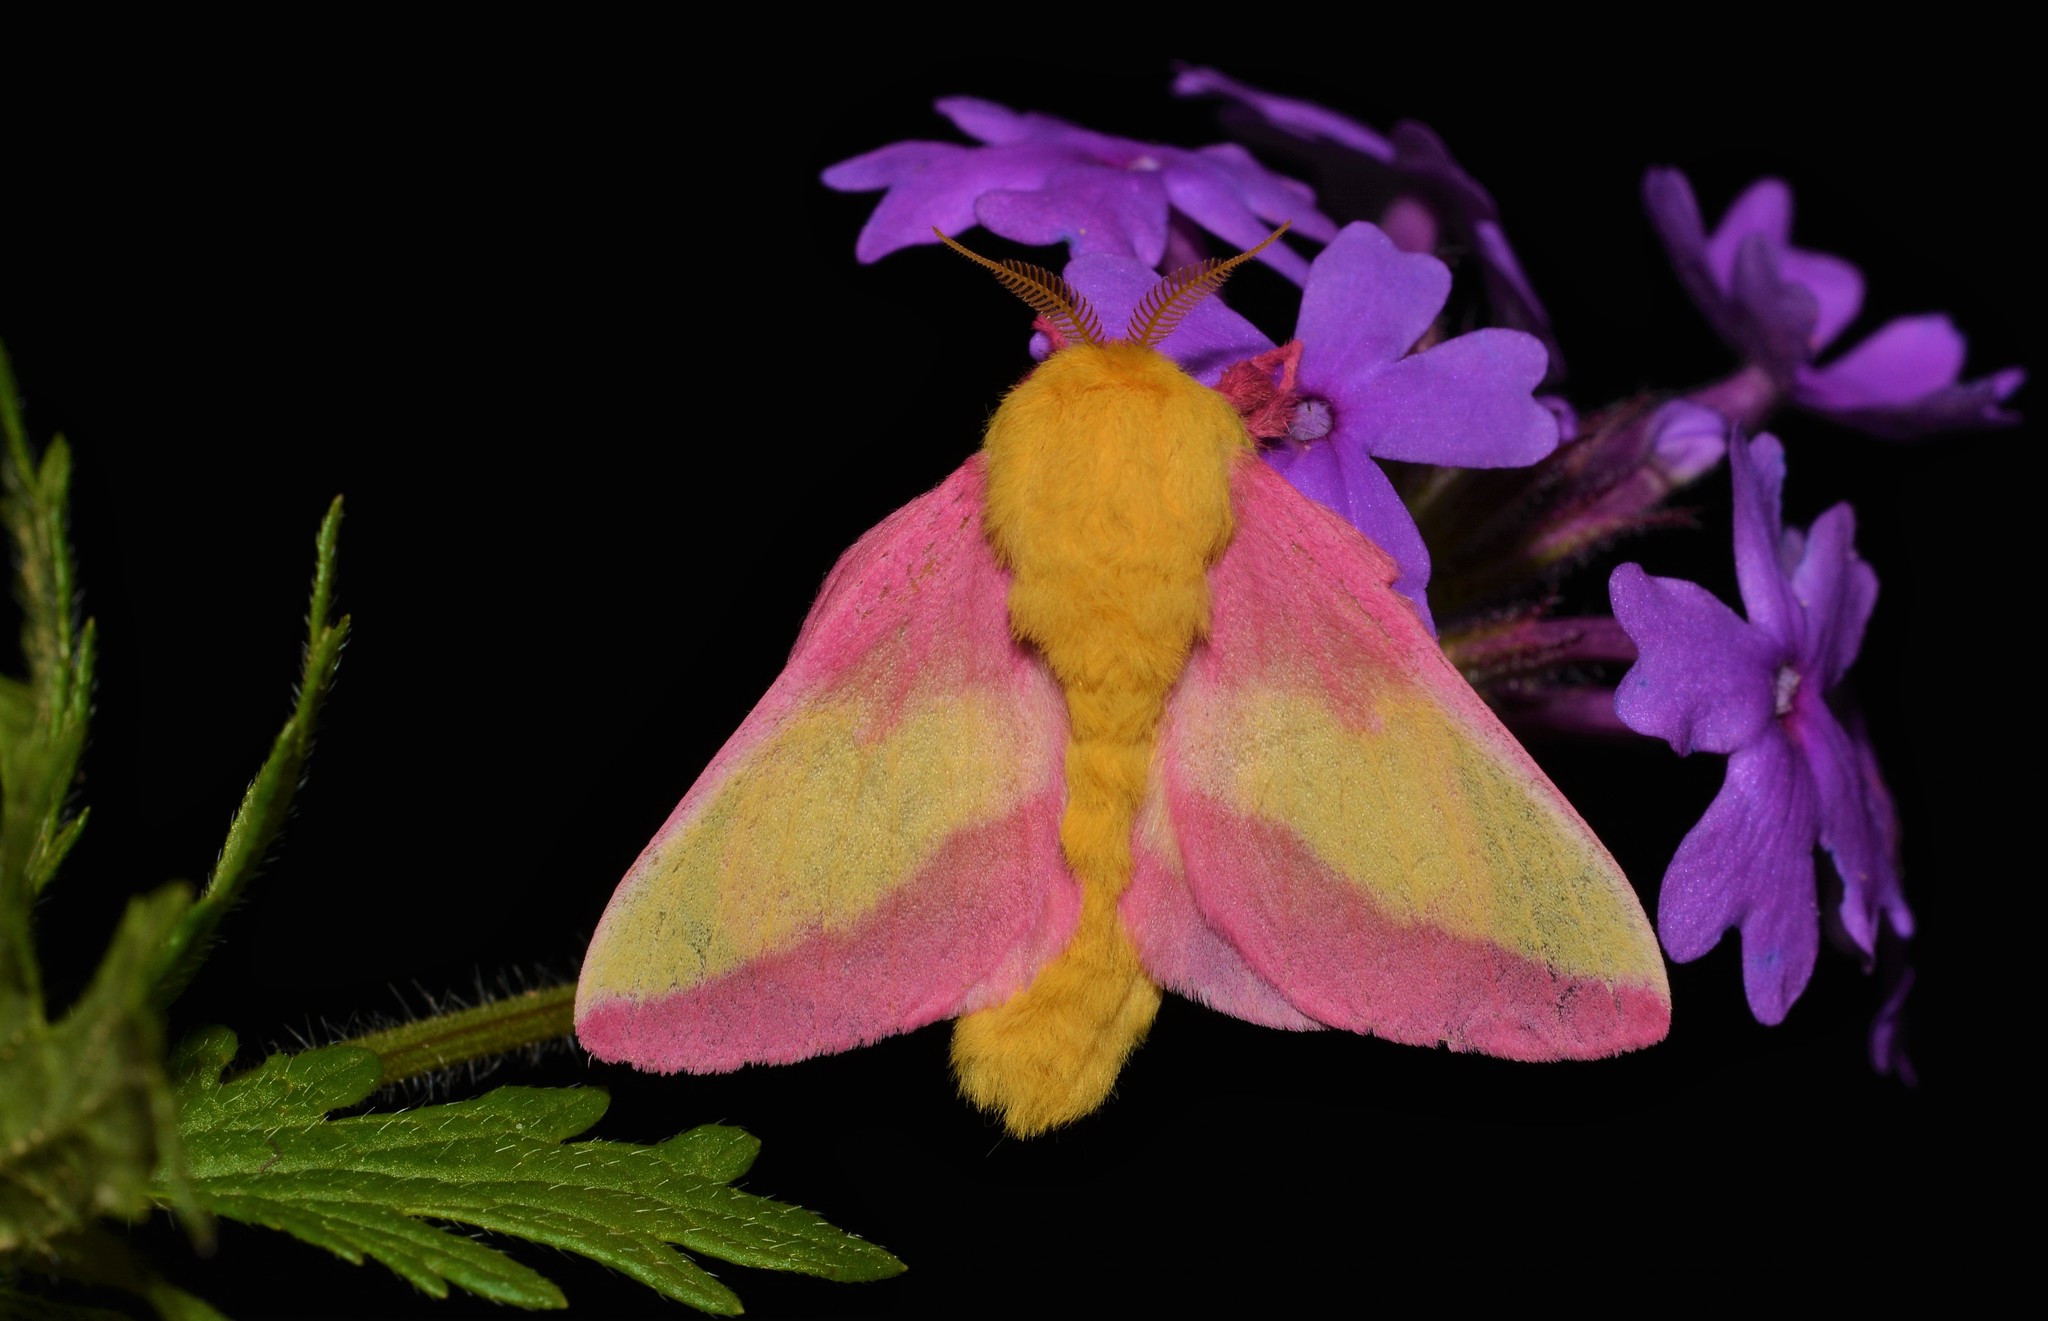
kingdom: Animalia
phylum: Arthropoda
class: Insecta
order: Lepidoptera
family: Saturniidae
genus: Dryocampa
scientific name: Dryocampa rubicunda
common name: Rosy maple moth
